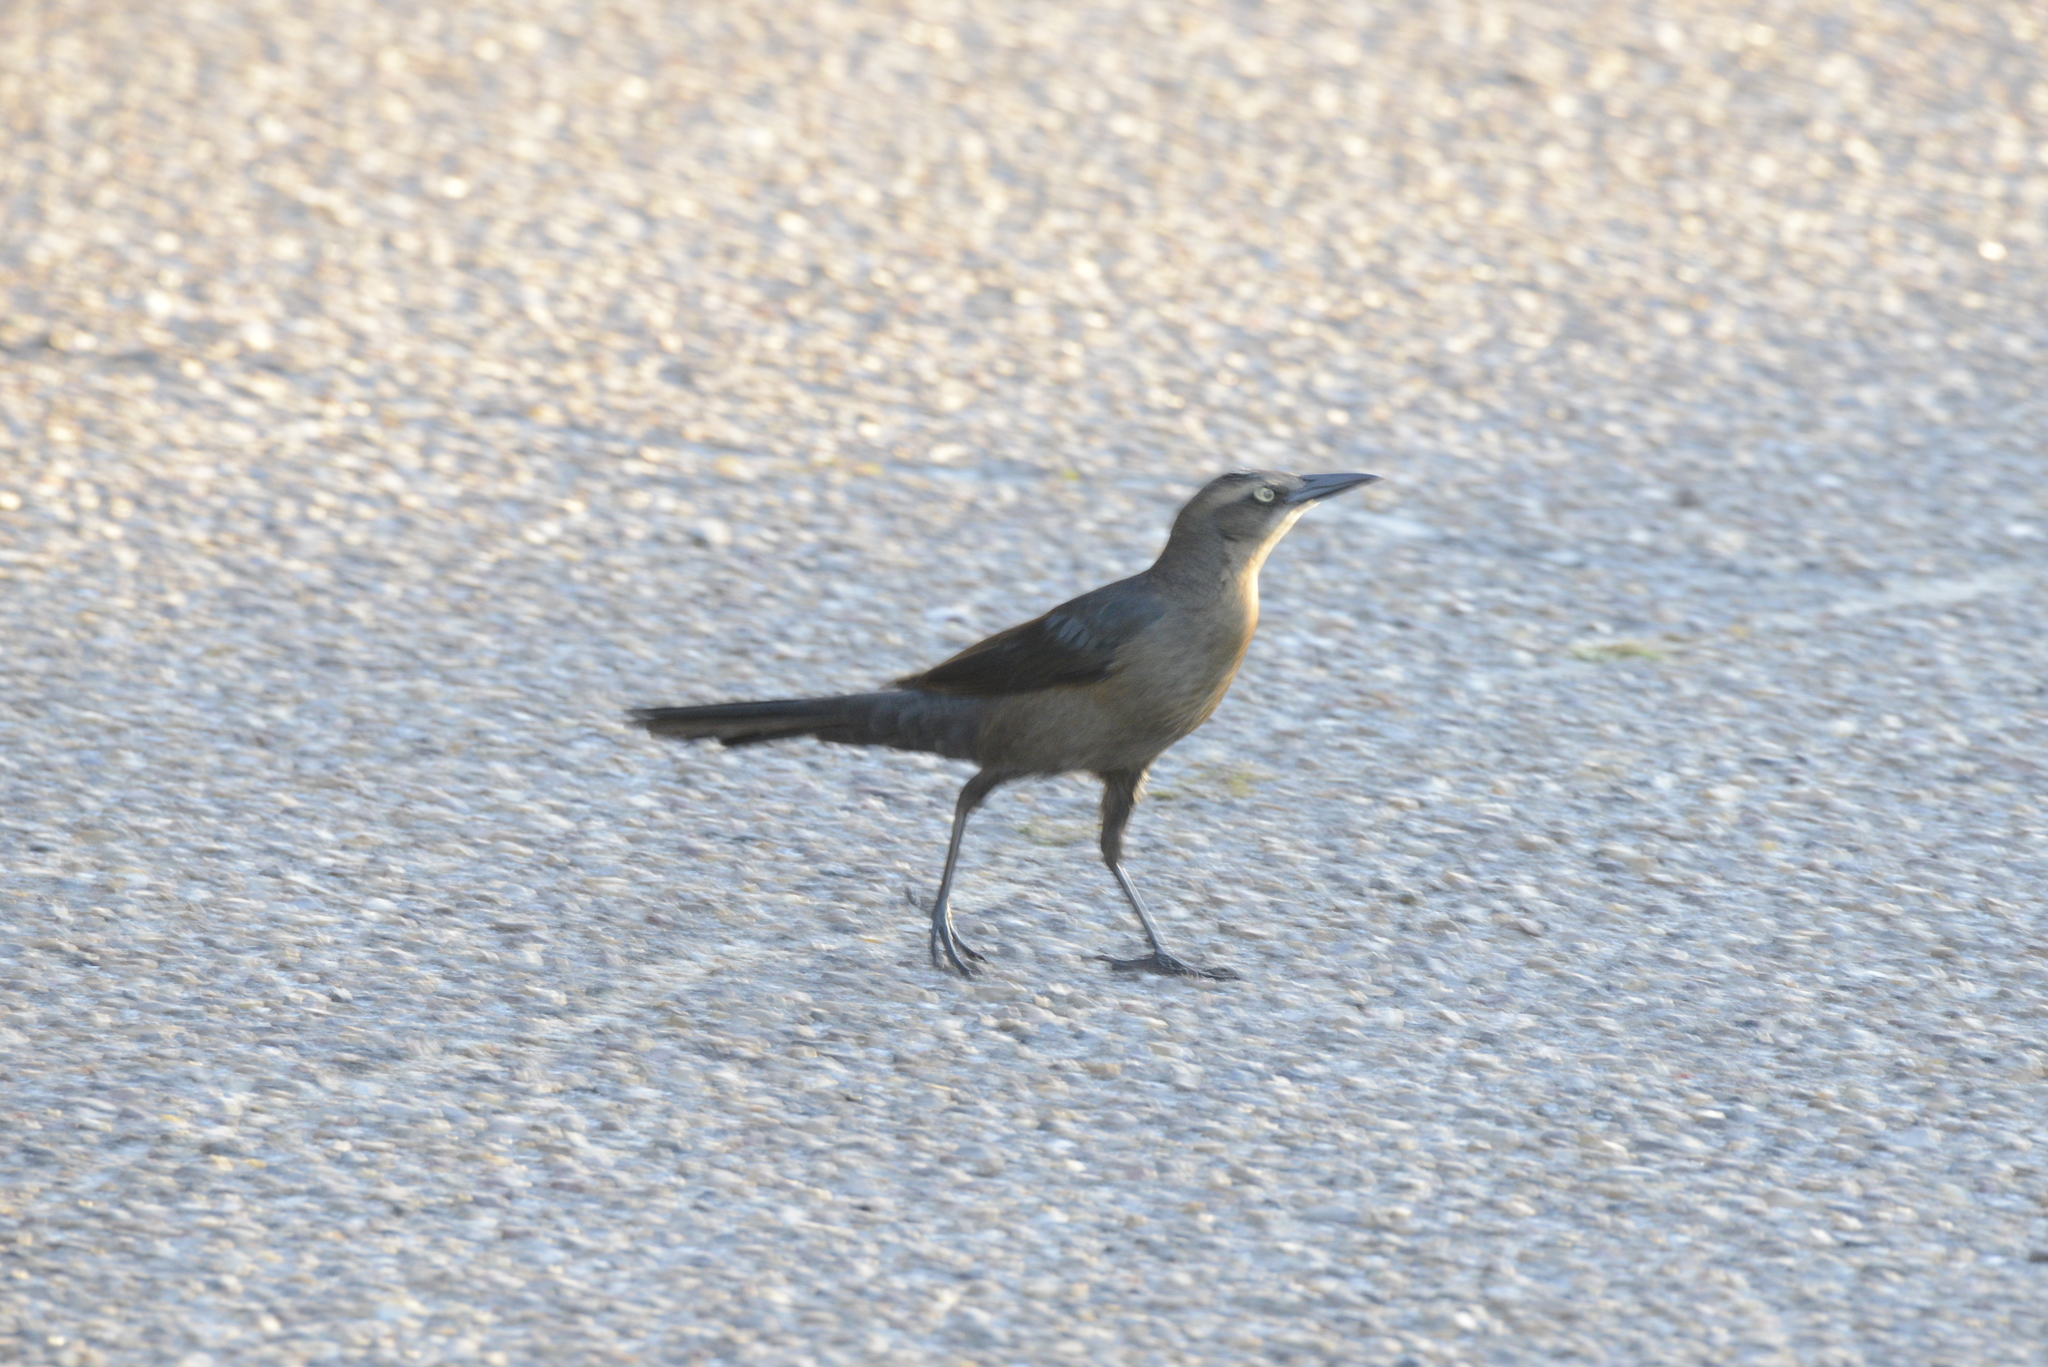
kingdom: Animalia
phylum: Chordata
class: Aves
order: Passeriformes
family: Icteridae
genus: Quiscalus
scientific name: Quiscalus mexicanus
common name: Great-tailed grackle
